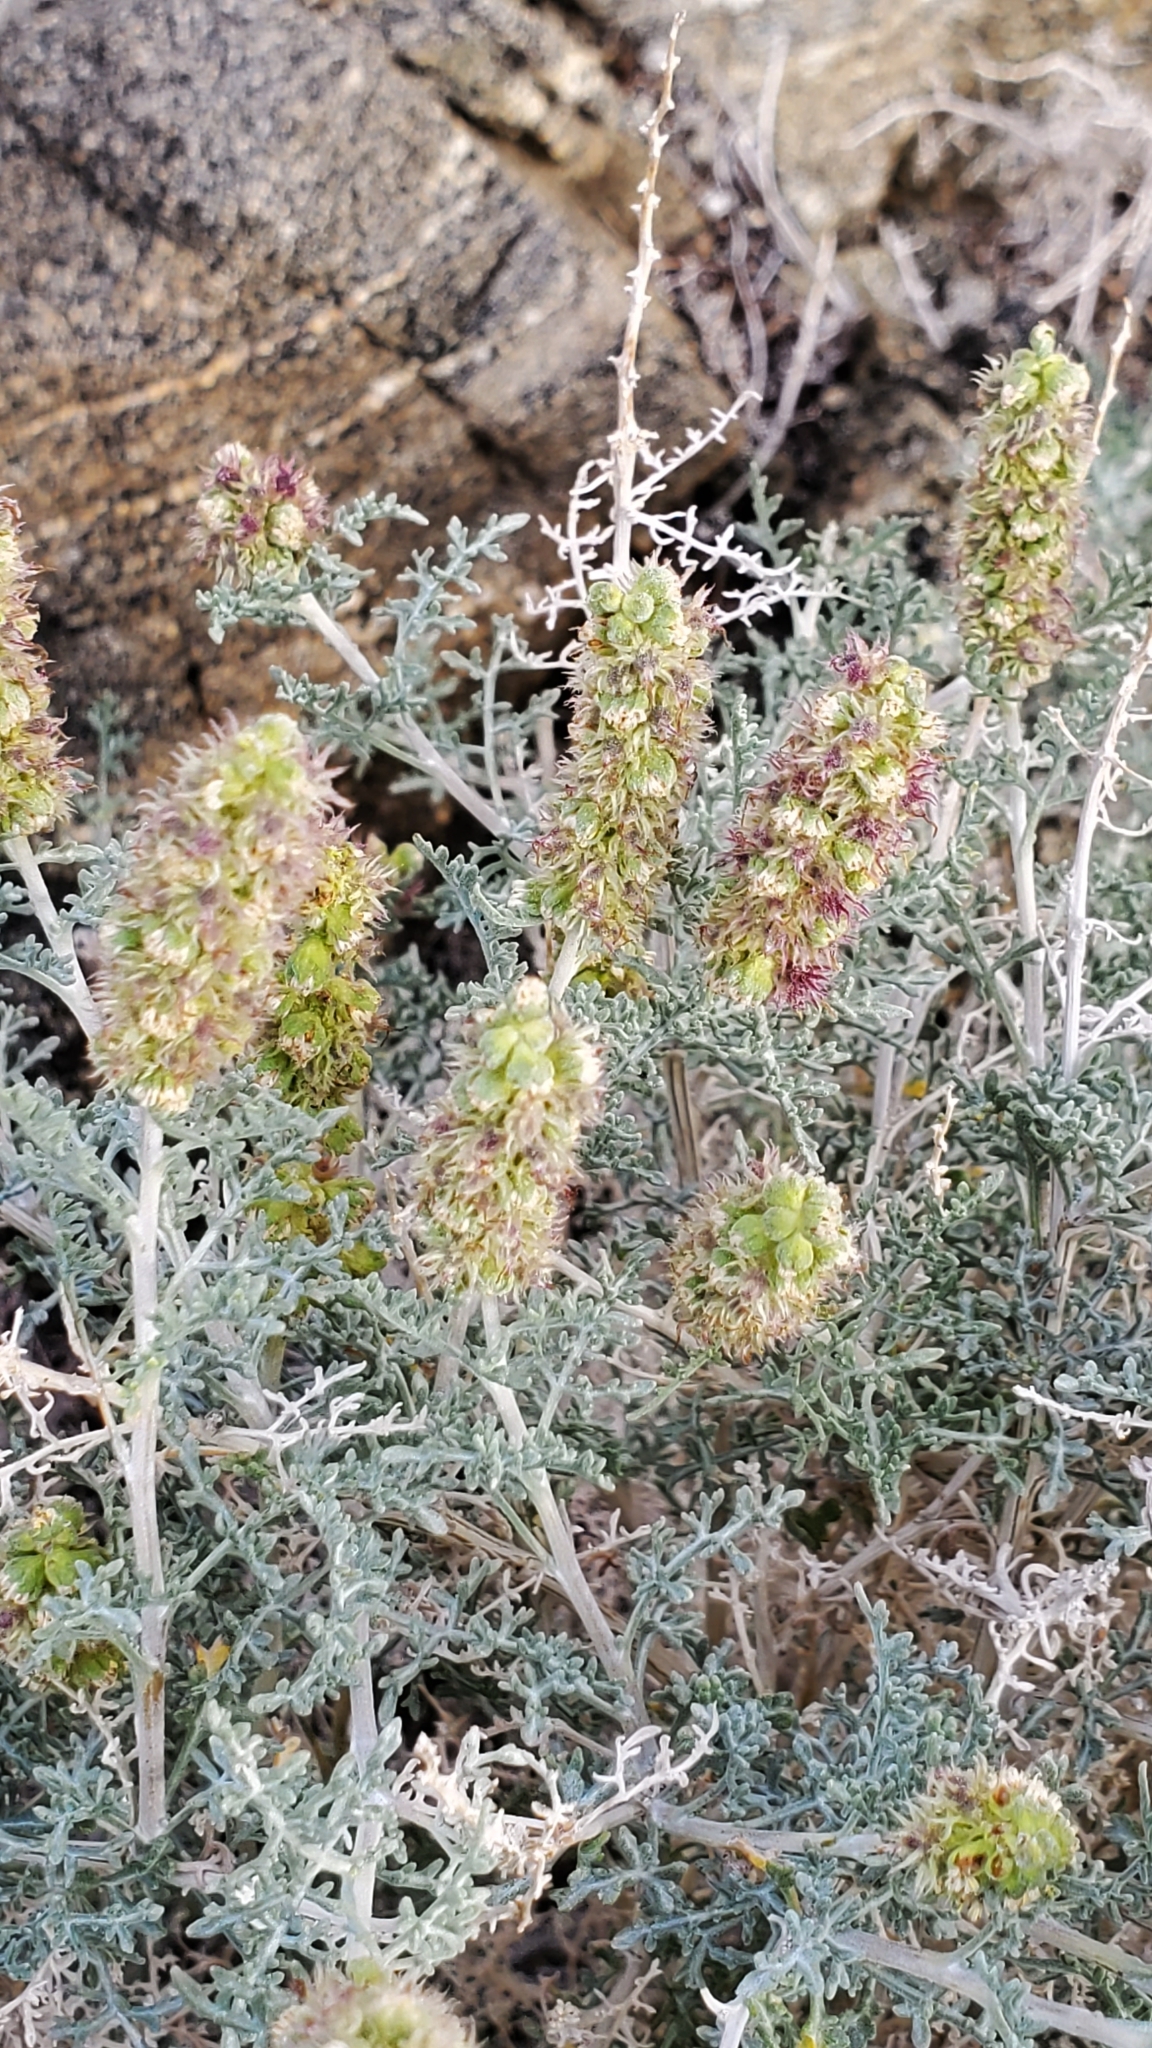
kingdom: Plantae
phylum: Tracheophyta
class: Magnoliopsida
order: Asterales
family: Asteraceae
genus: Ambrosia
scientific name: Ambrosia dumosa
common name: Bur-sage
